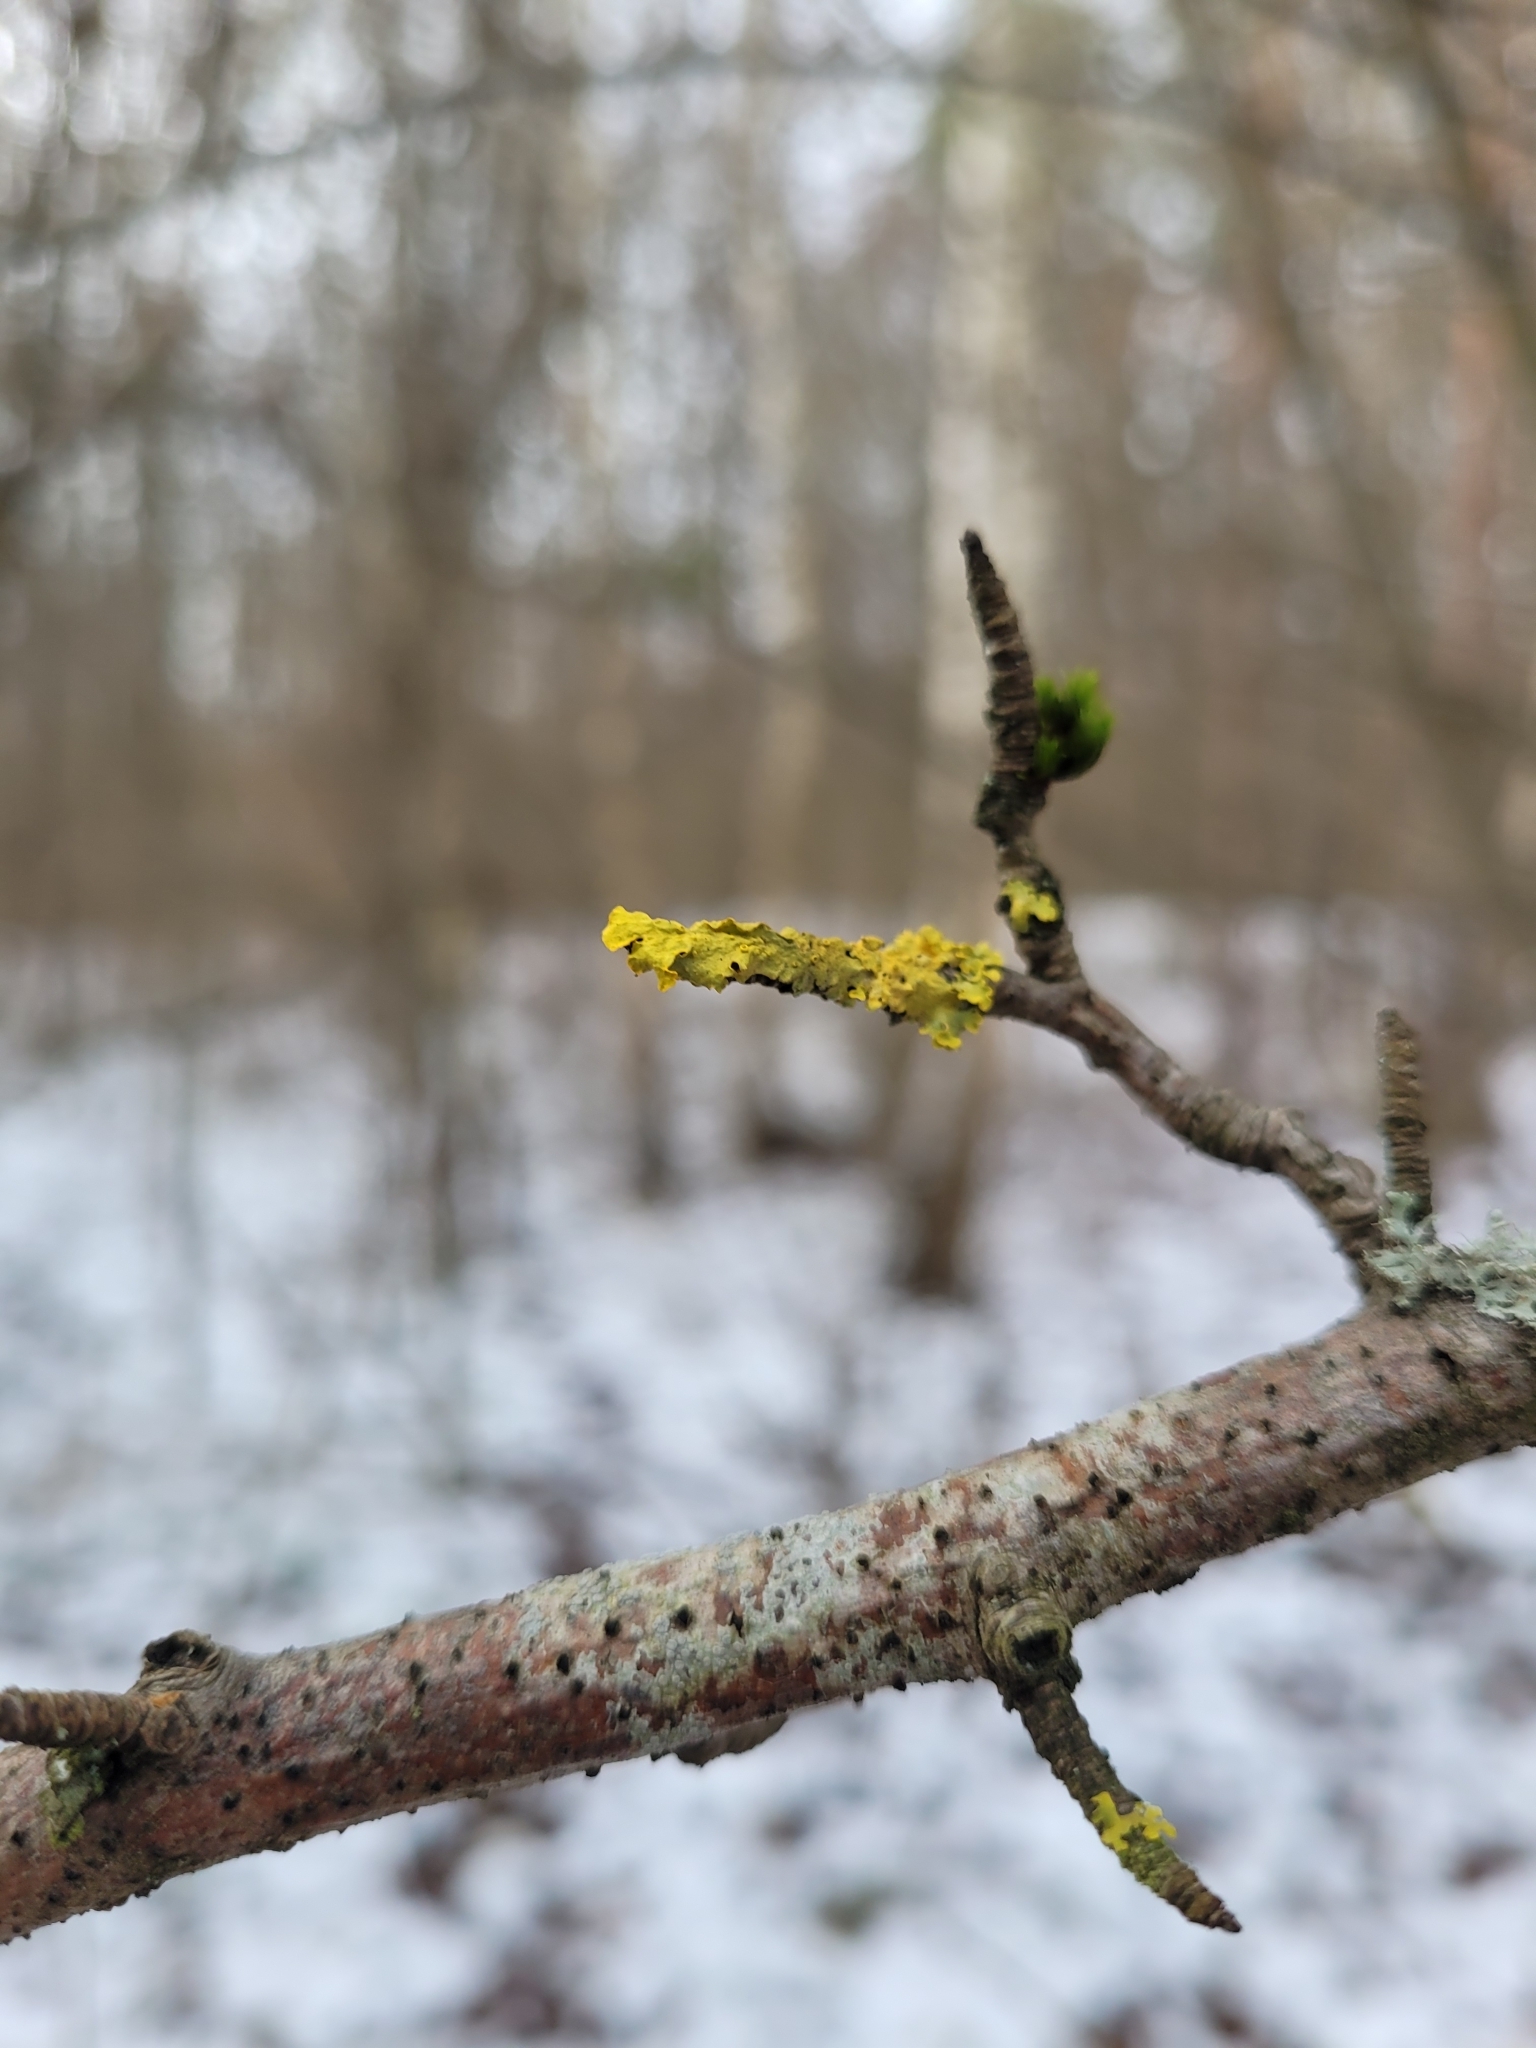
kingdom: Fungi
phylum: Ascomycota
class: Lecanoromycetes
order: Teloschistales
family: Teloschistaceae
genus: Xanthoria
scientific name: Xanthoria parietina
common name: Common orange lichen
